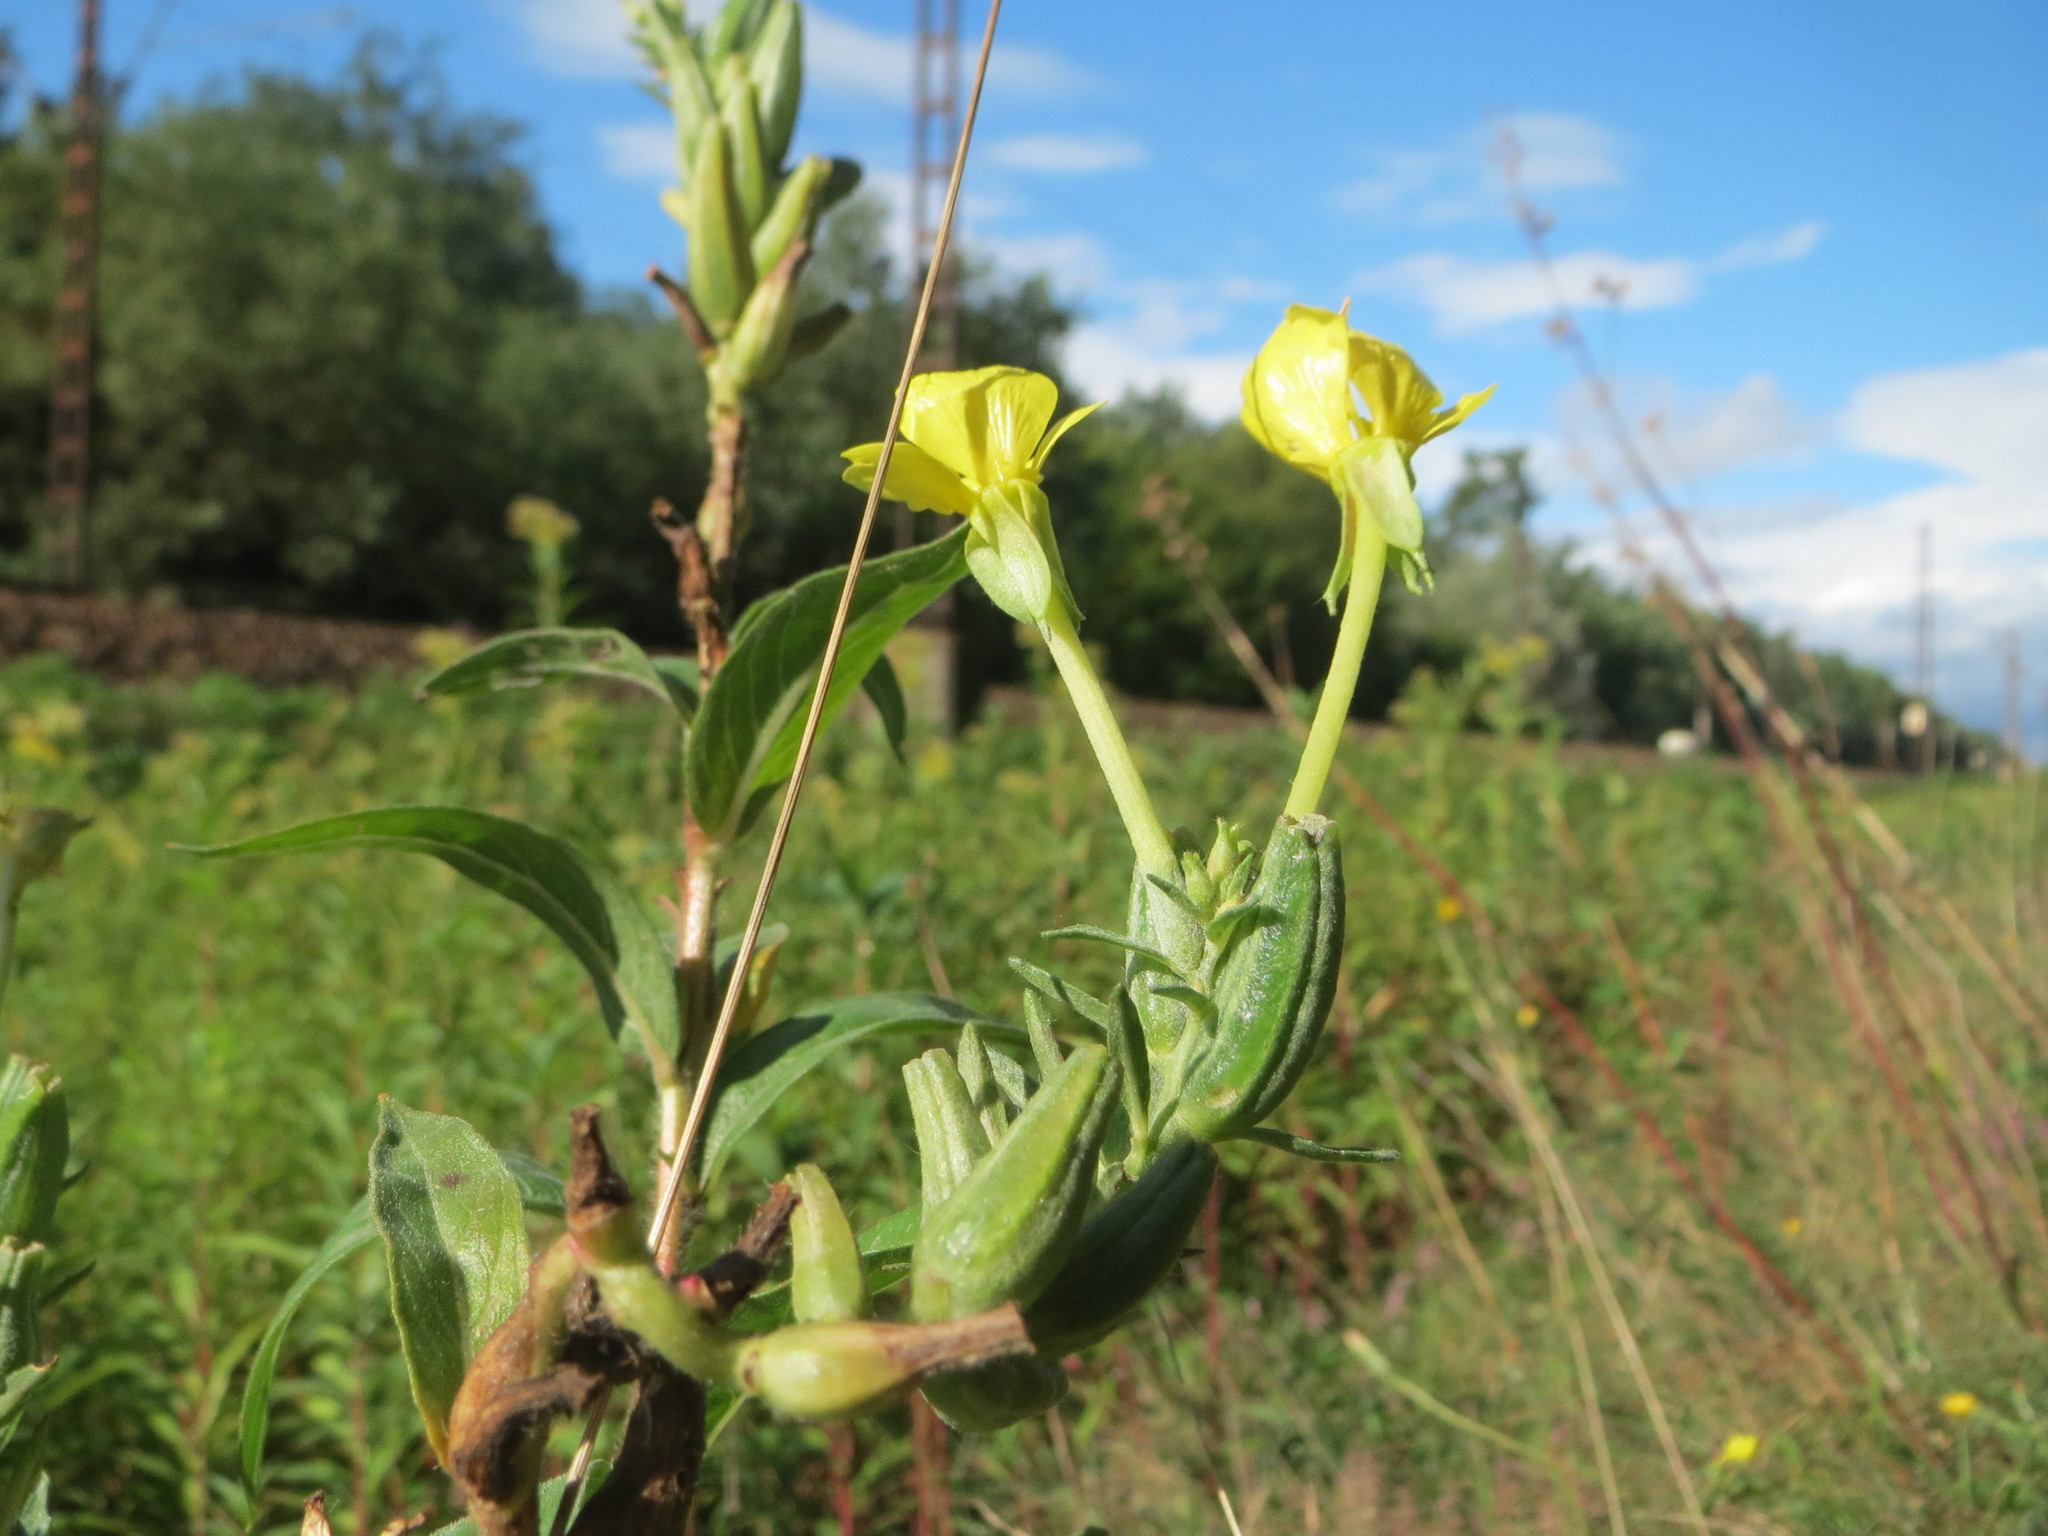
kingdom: Plantae
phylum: Tracheophyta
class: Magnoliopsida
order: Myrtales
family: Onagraceae
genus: Oenothera
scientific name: Oenothera biennis
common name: Common evening-primrose
